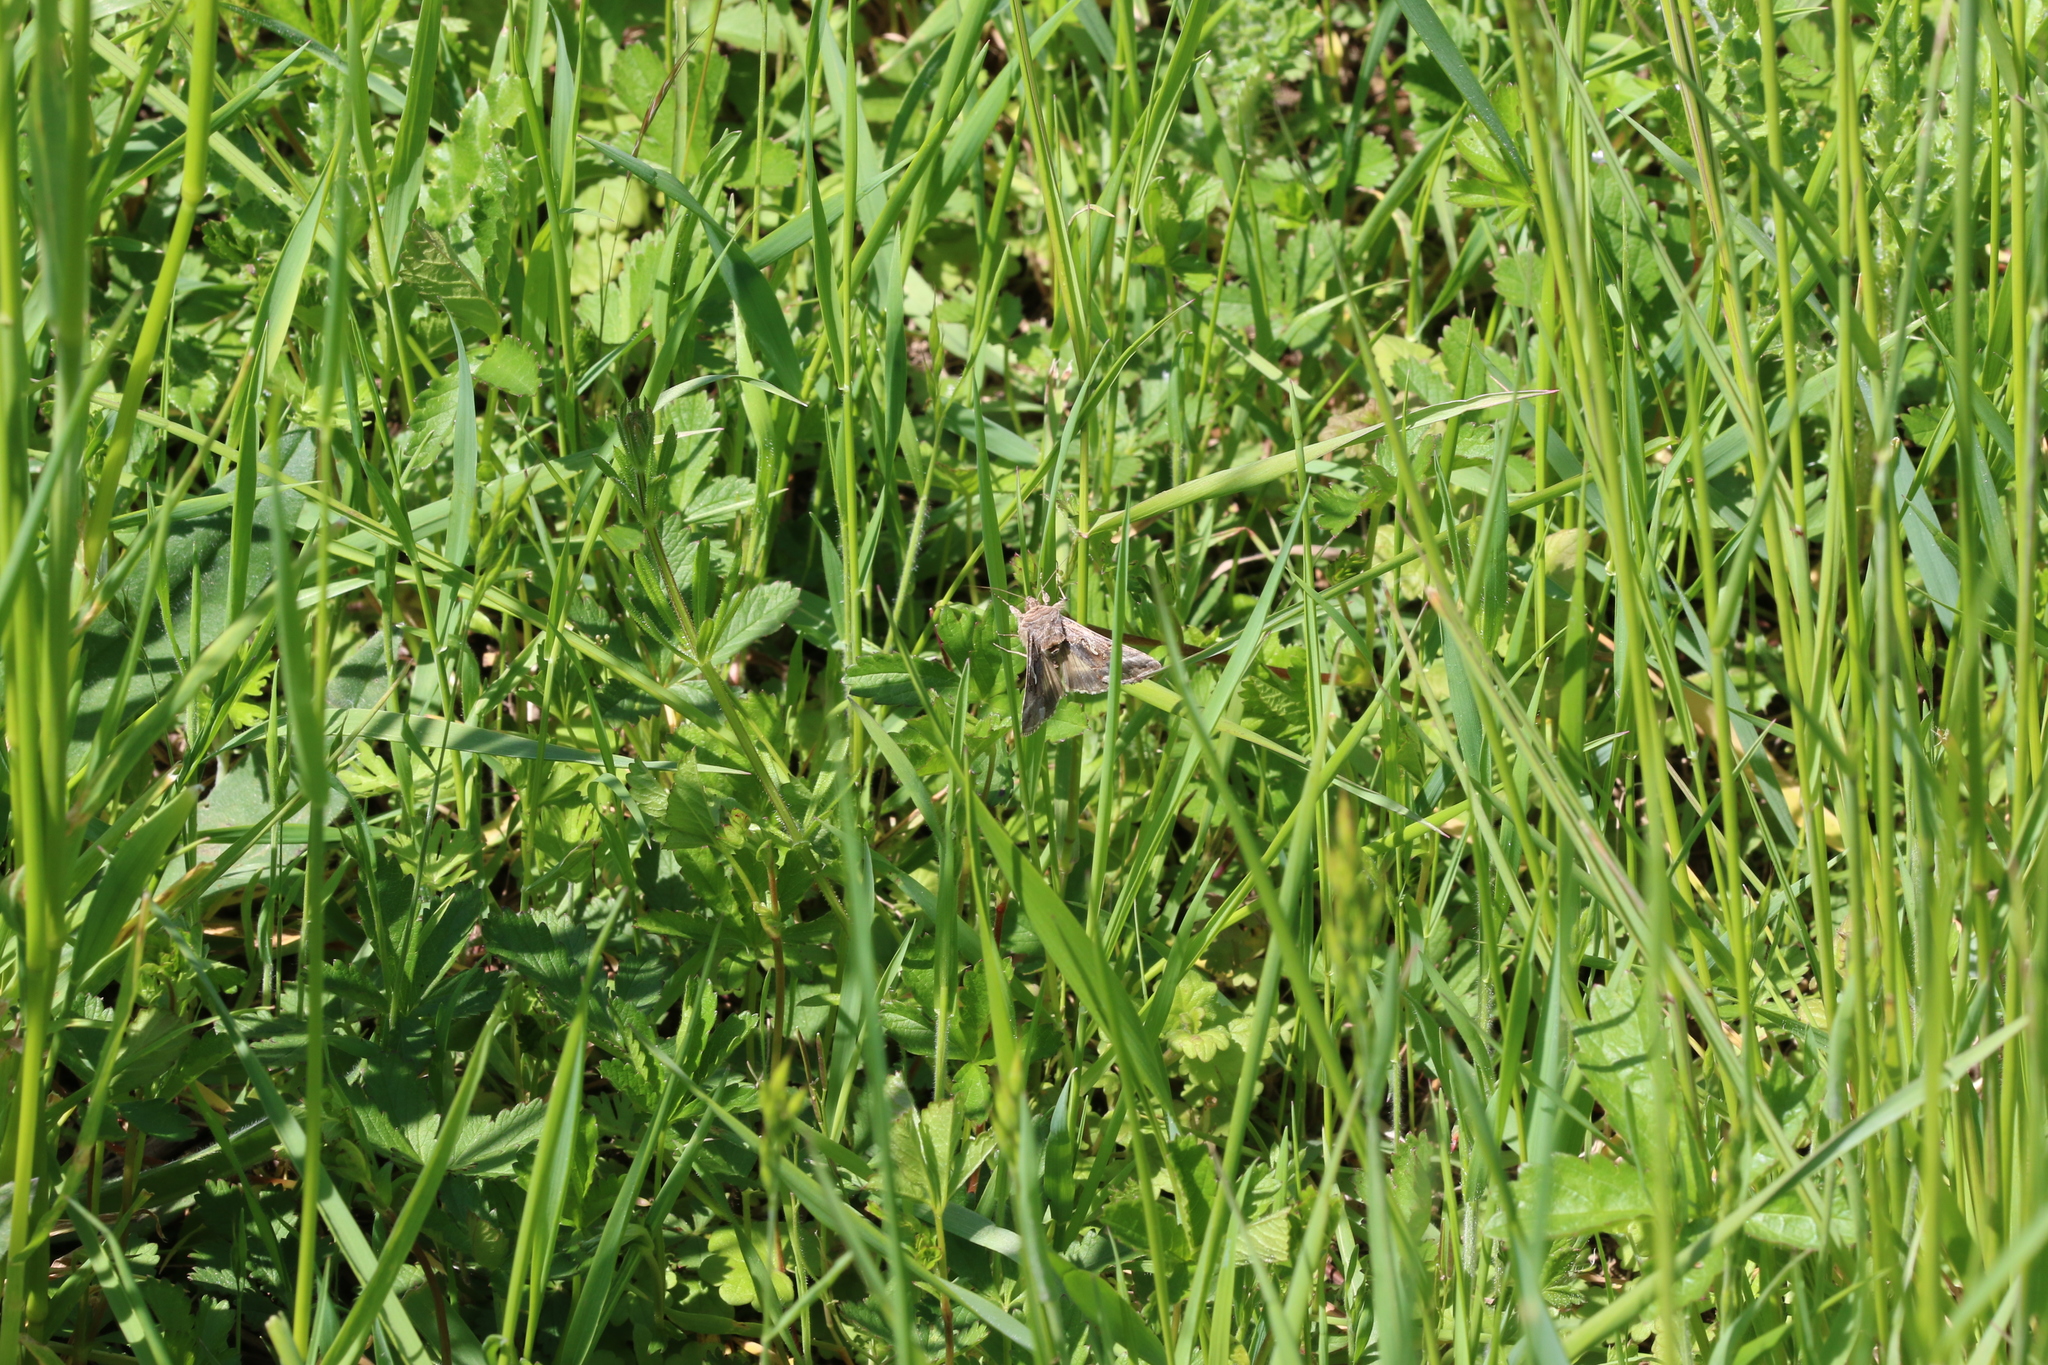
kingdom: Animalia
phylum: Arthropoda
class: Insecta
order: Lepidoptera
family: Noctuidae
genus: Autographa
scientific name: Autographa gamma
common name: Silver y
